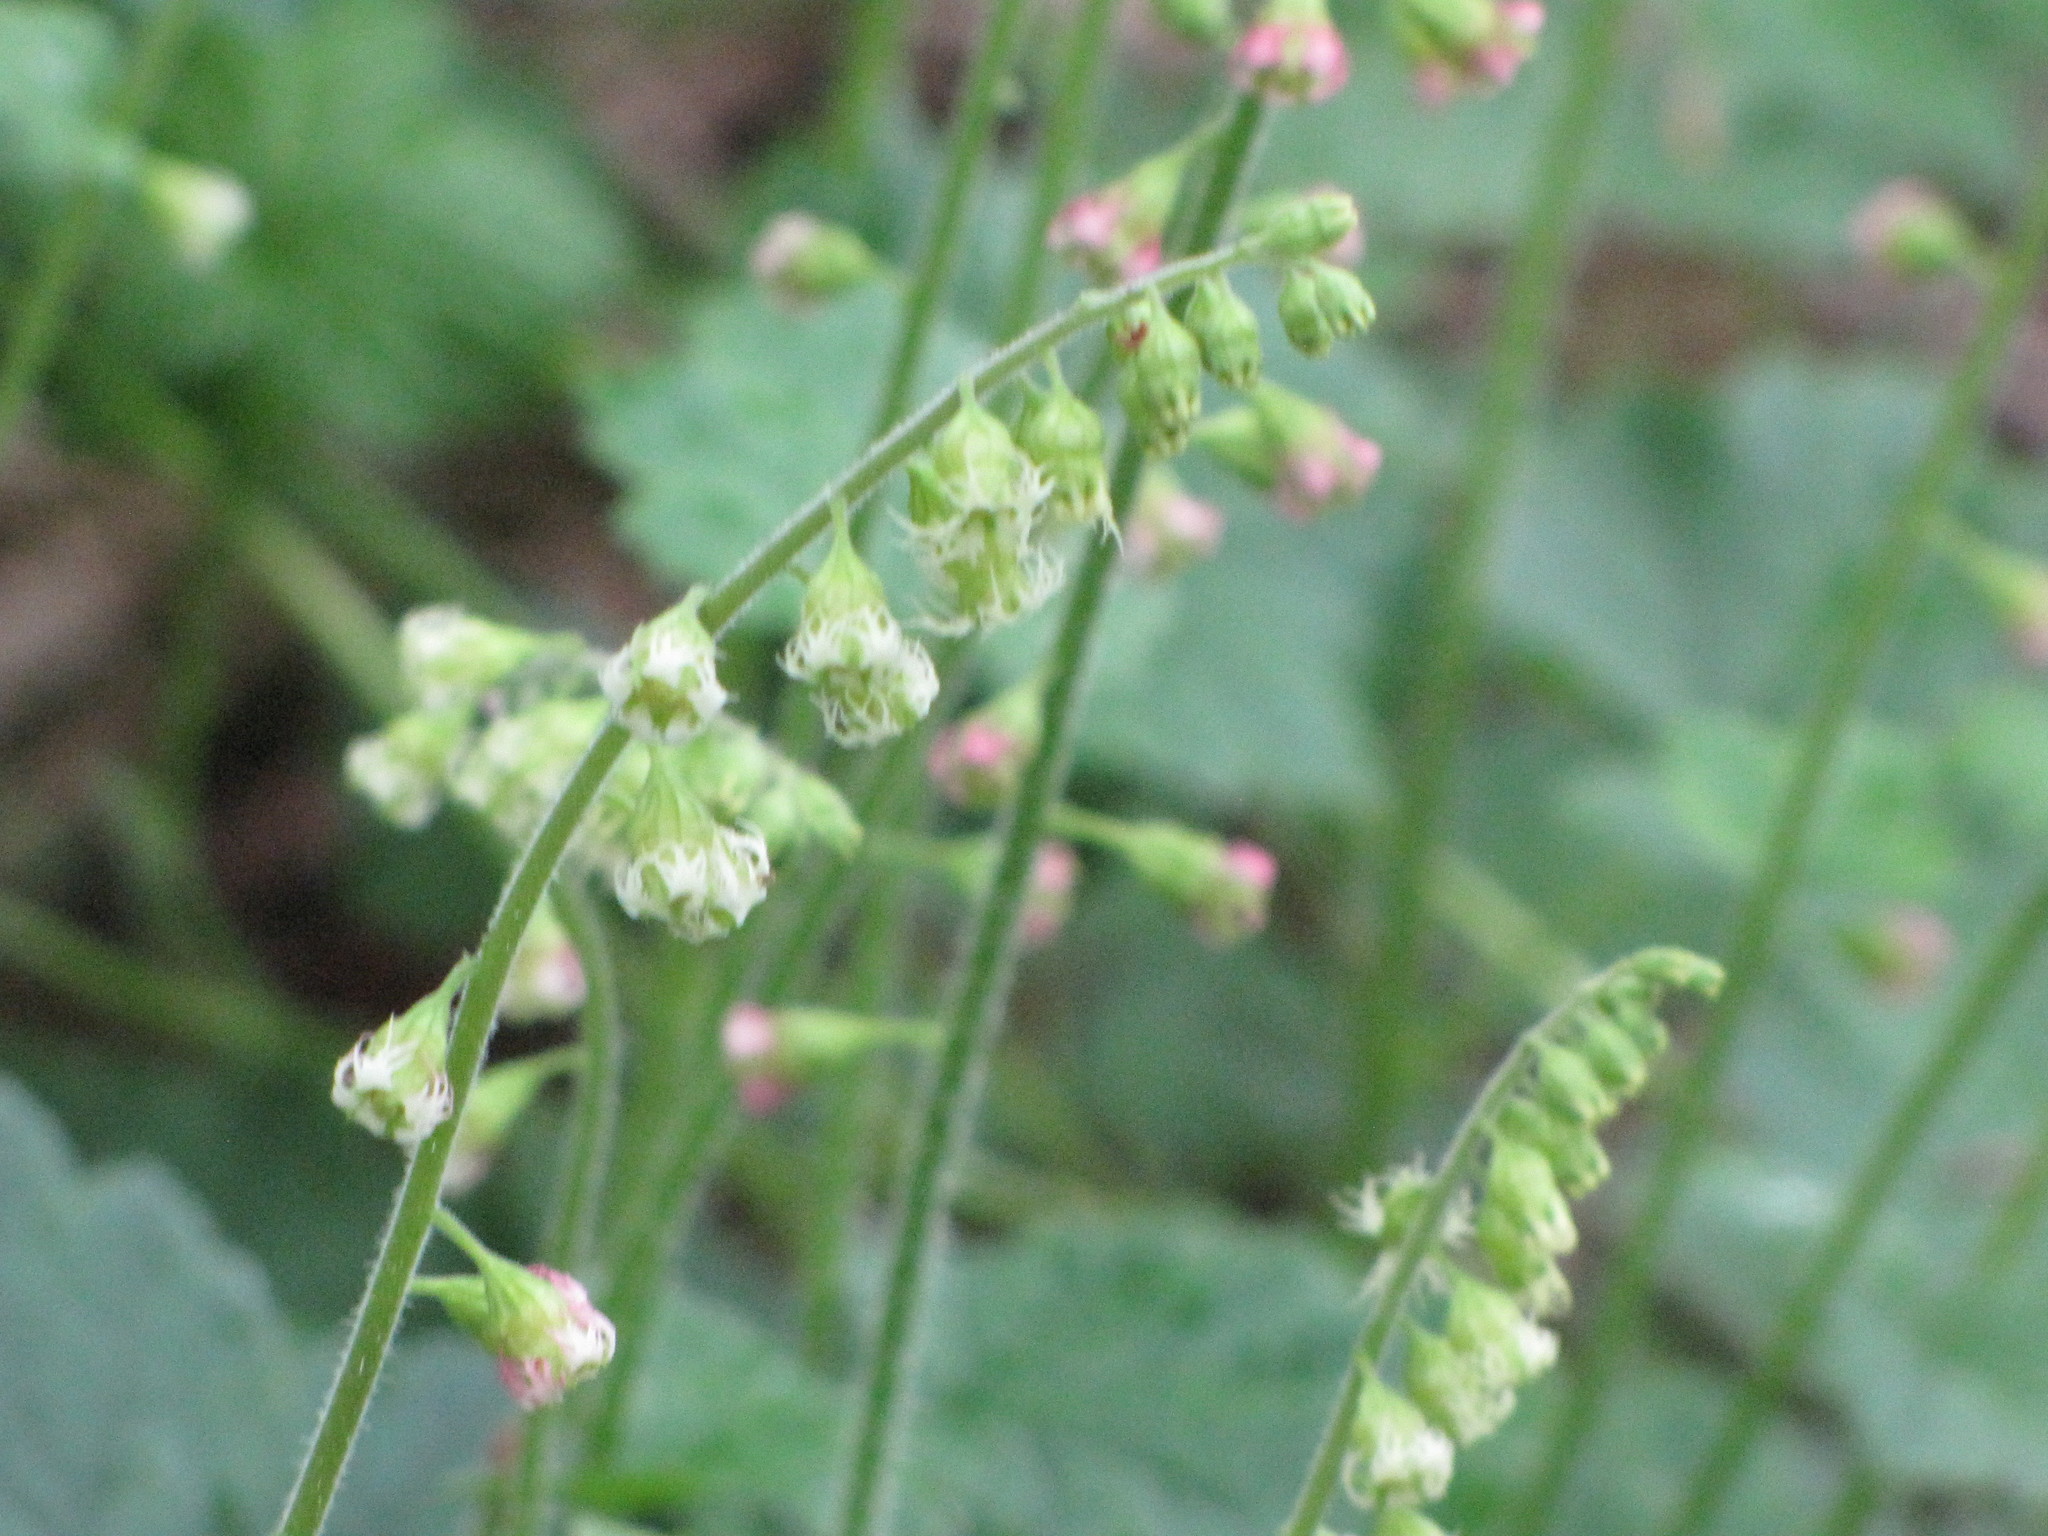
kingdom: Plantae
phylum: Tracheophyta
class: Magnoliopsida
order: Saxifragales
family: Saxifragaceae
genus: Tellima
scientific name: Tellima grandiflora
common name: Fringecups
